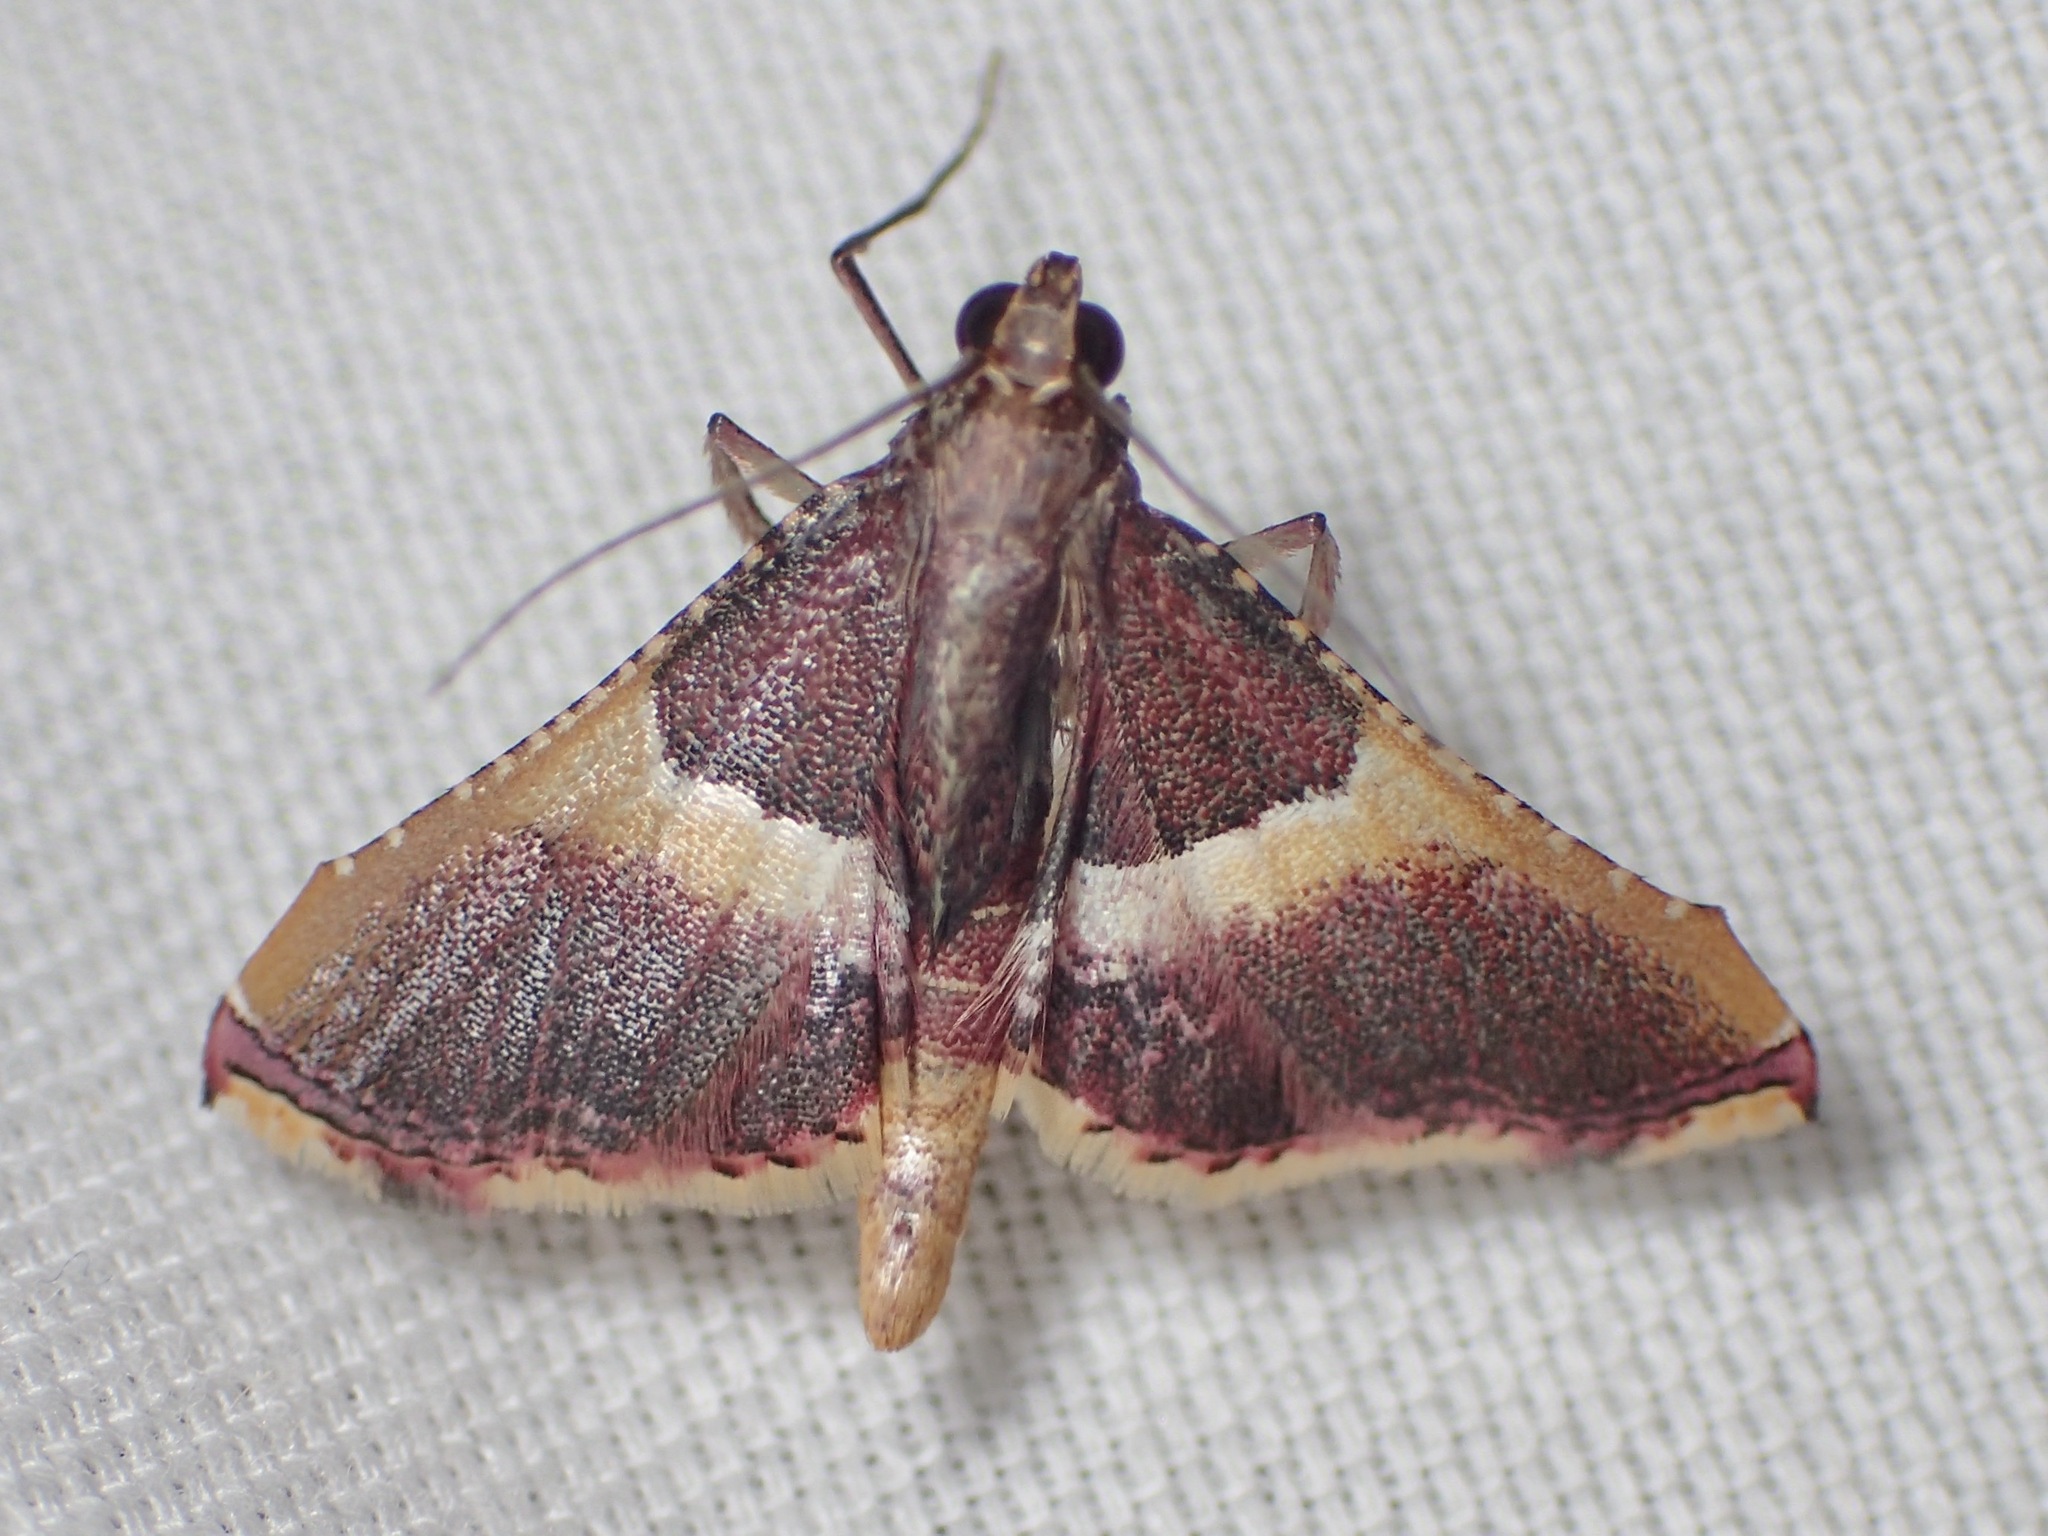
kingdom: Animalia
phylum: Arthropoda
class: Insecta
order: Lepidoptera
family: Pyralidae
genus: Endotricha
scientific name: Endotricha mesenterialis
